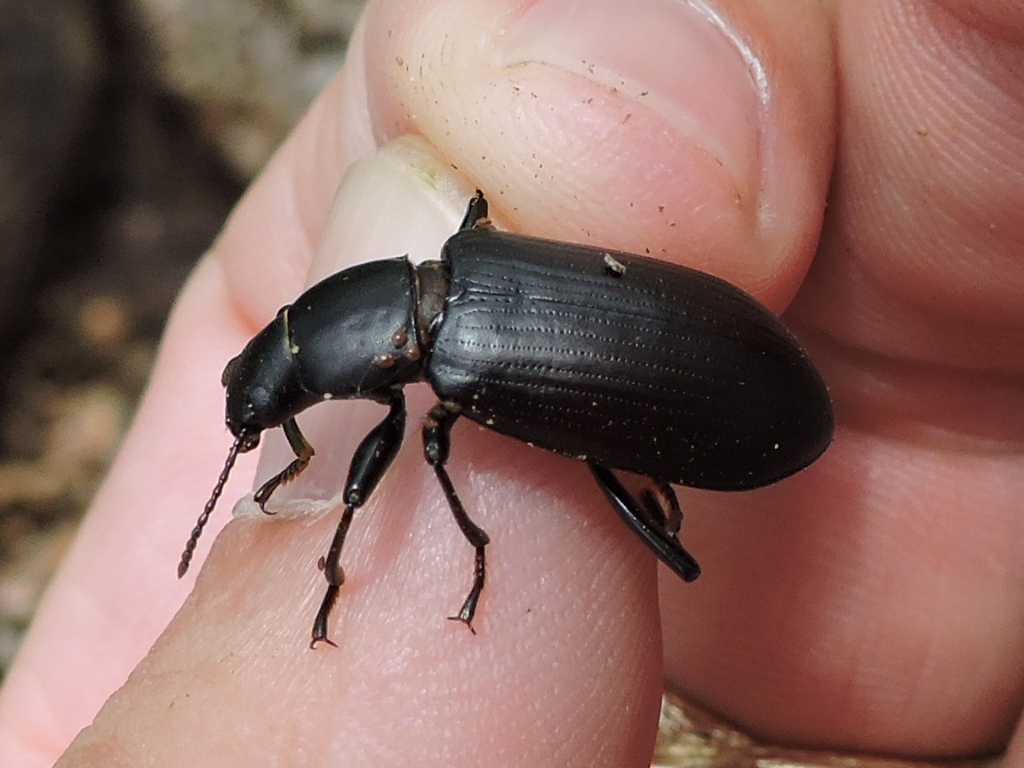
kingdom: Animalia
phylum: Arthropoda
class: Insecta
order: Coleoptera
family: Tenebrionidae
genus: Alobates
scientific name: Alobates
